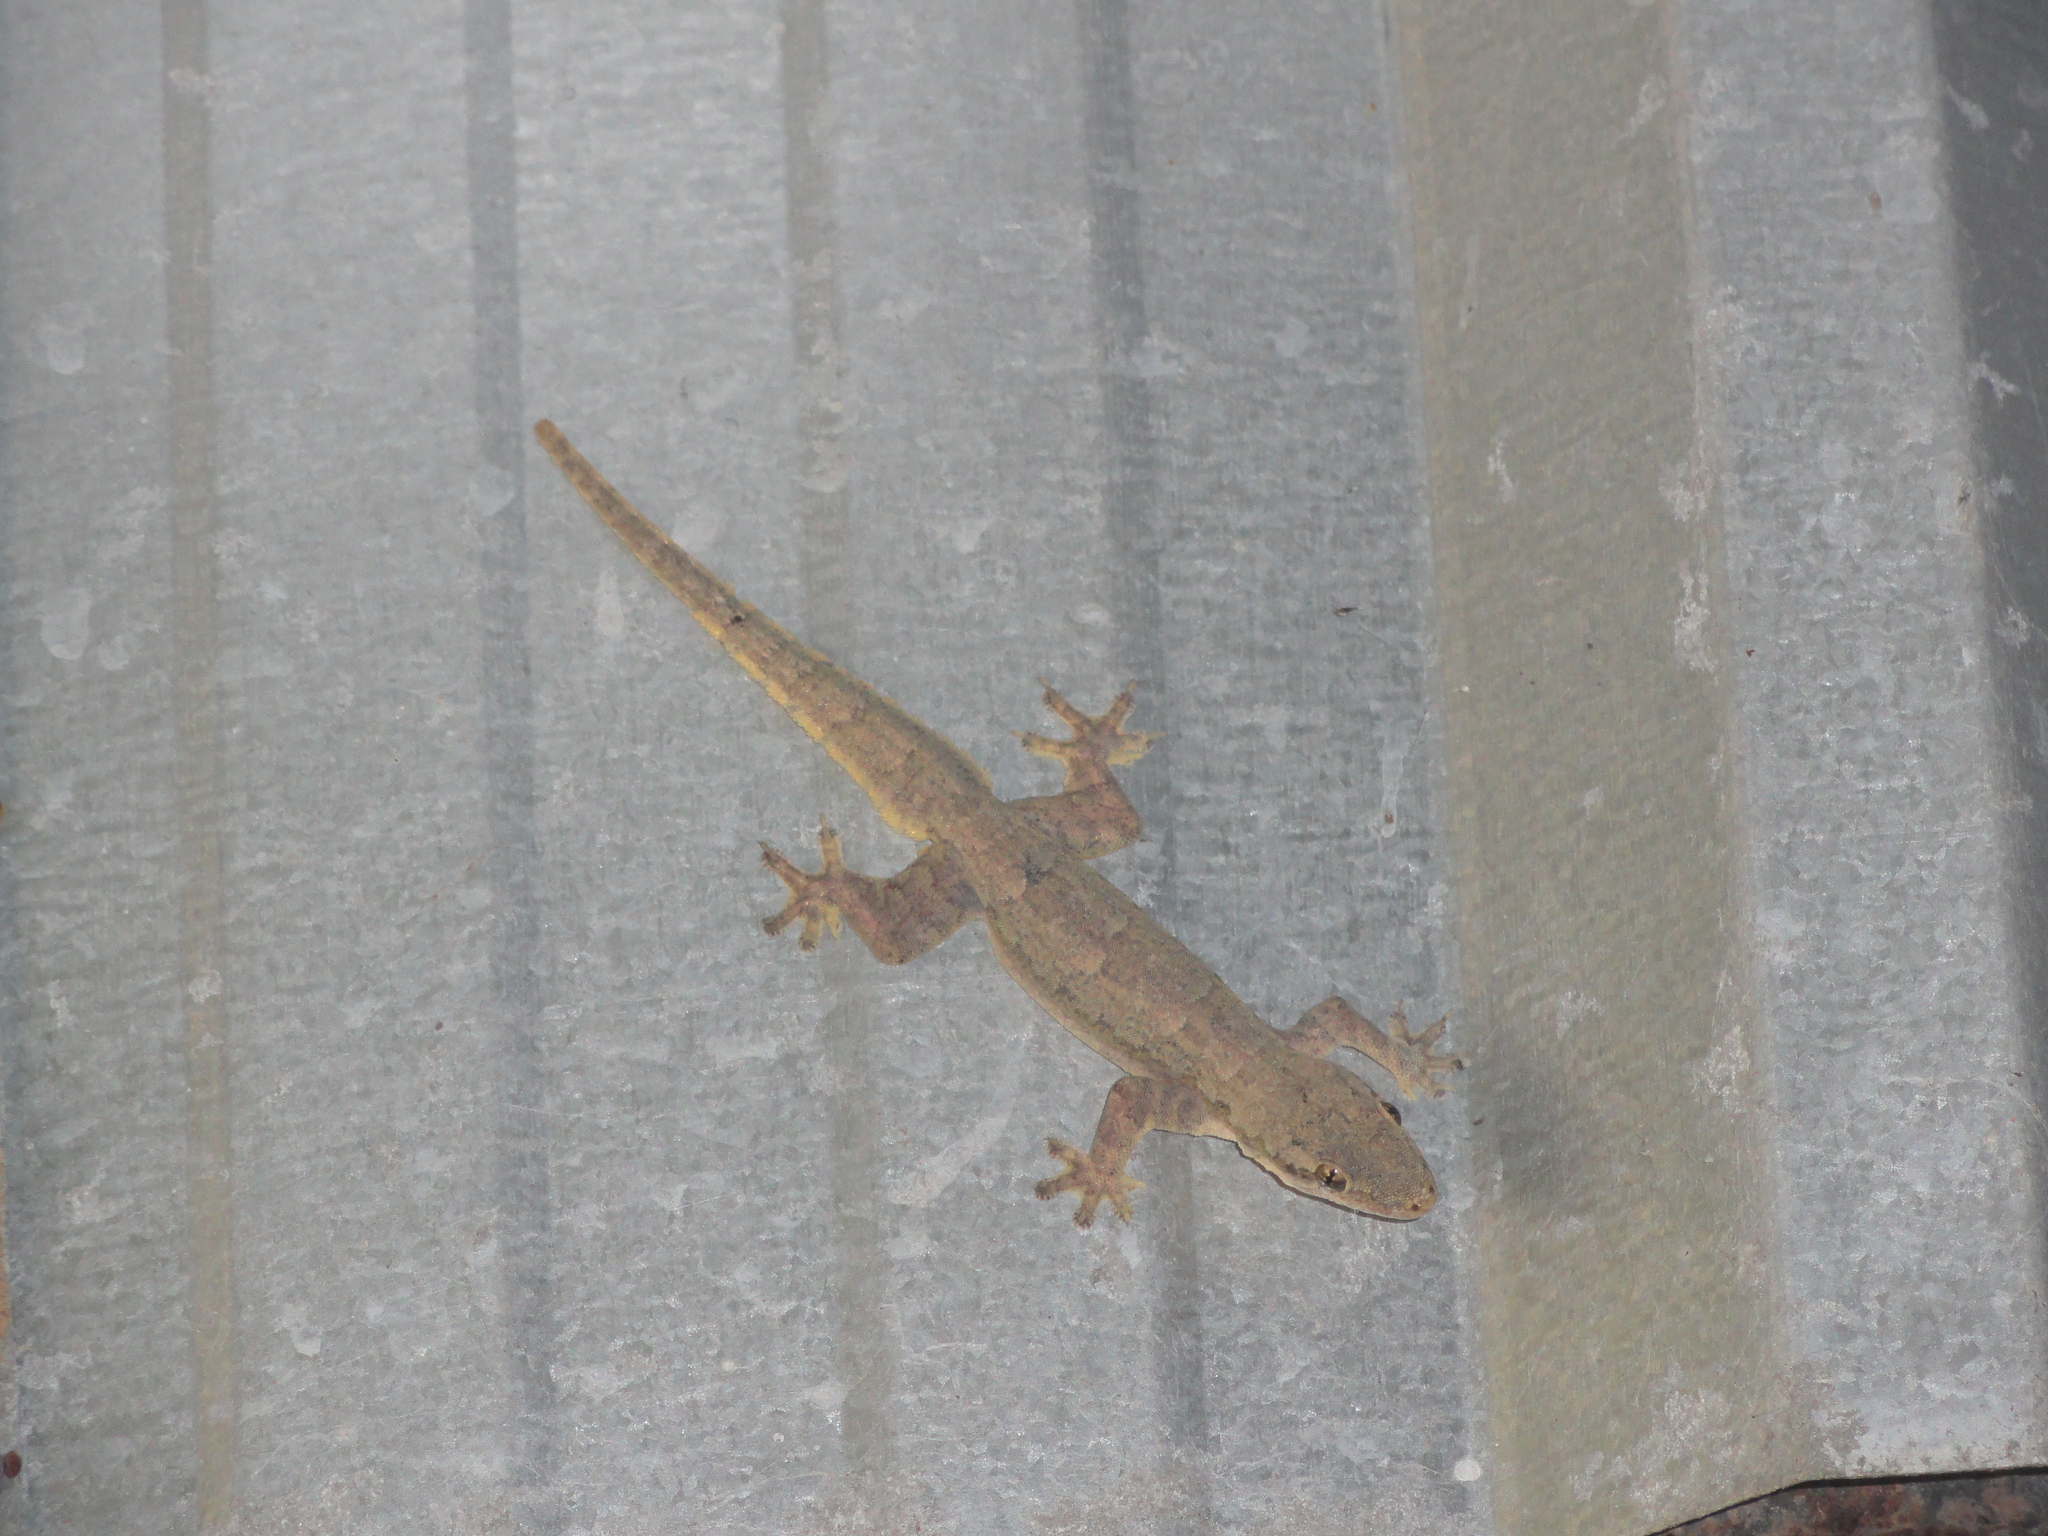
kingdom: Animalia
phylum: Chordata
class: Squamata
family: Gekkonidae
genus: Hemidactylus
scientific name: Hemidactylus platyurus
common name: Flat-tailed house gecko
